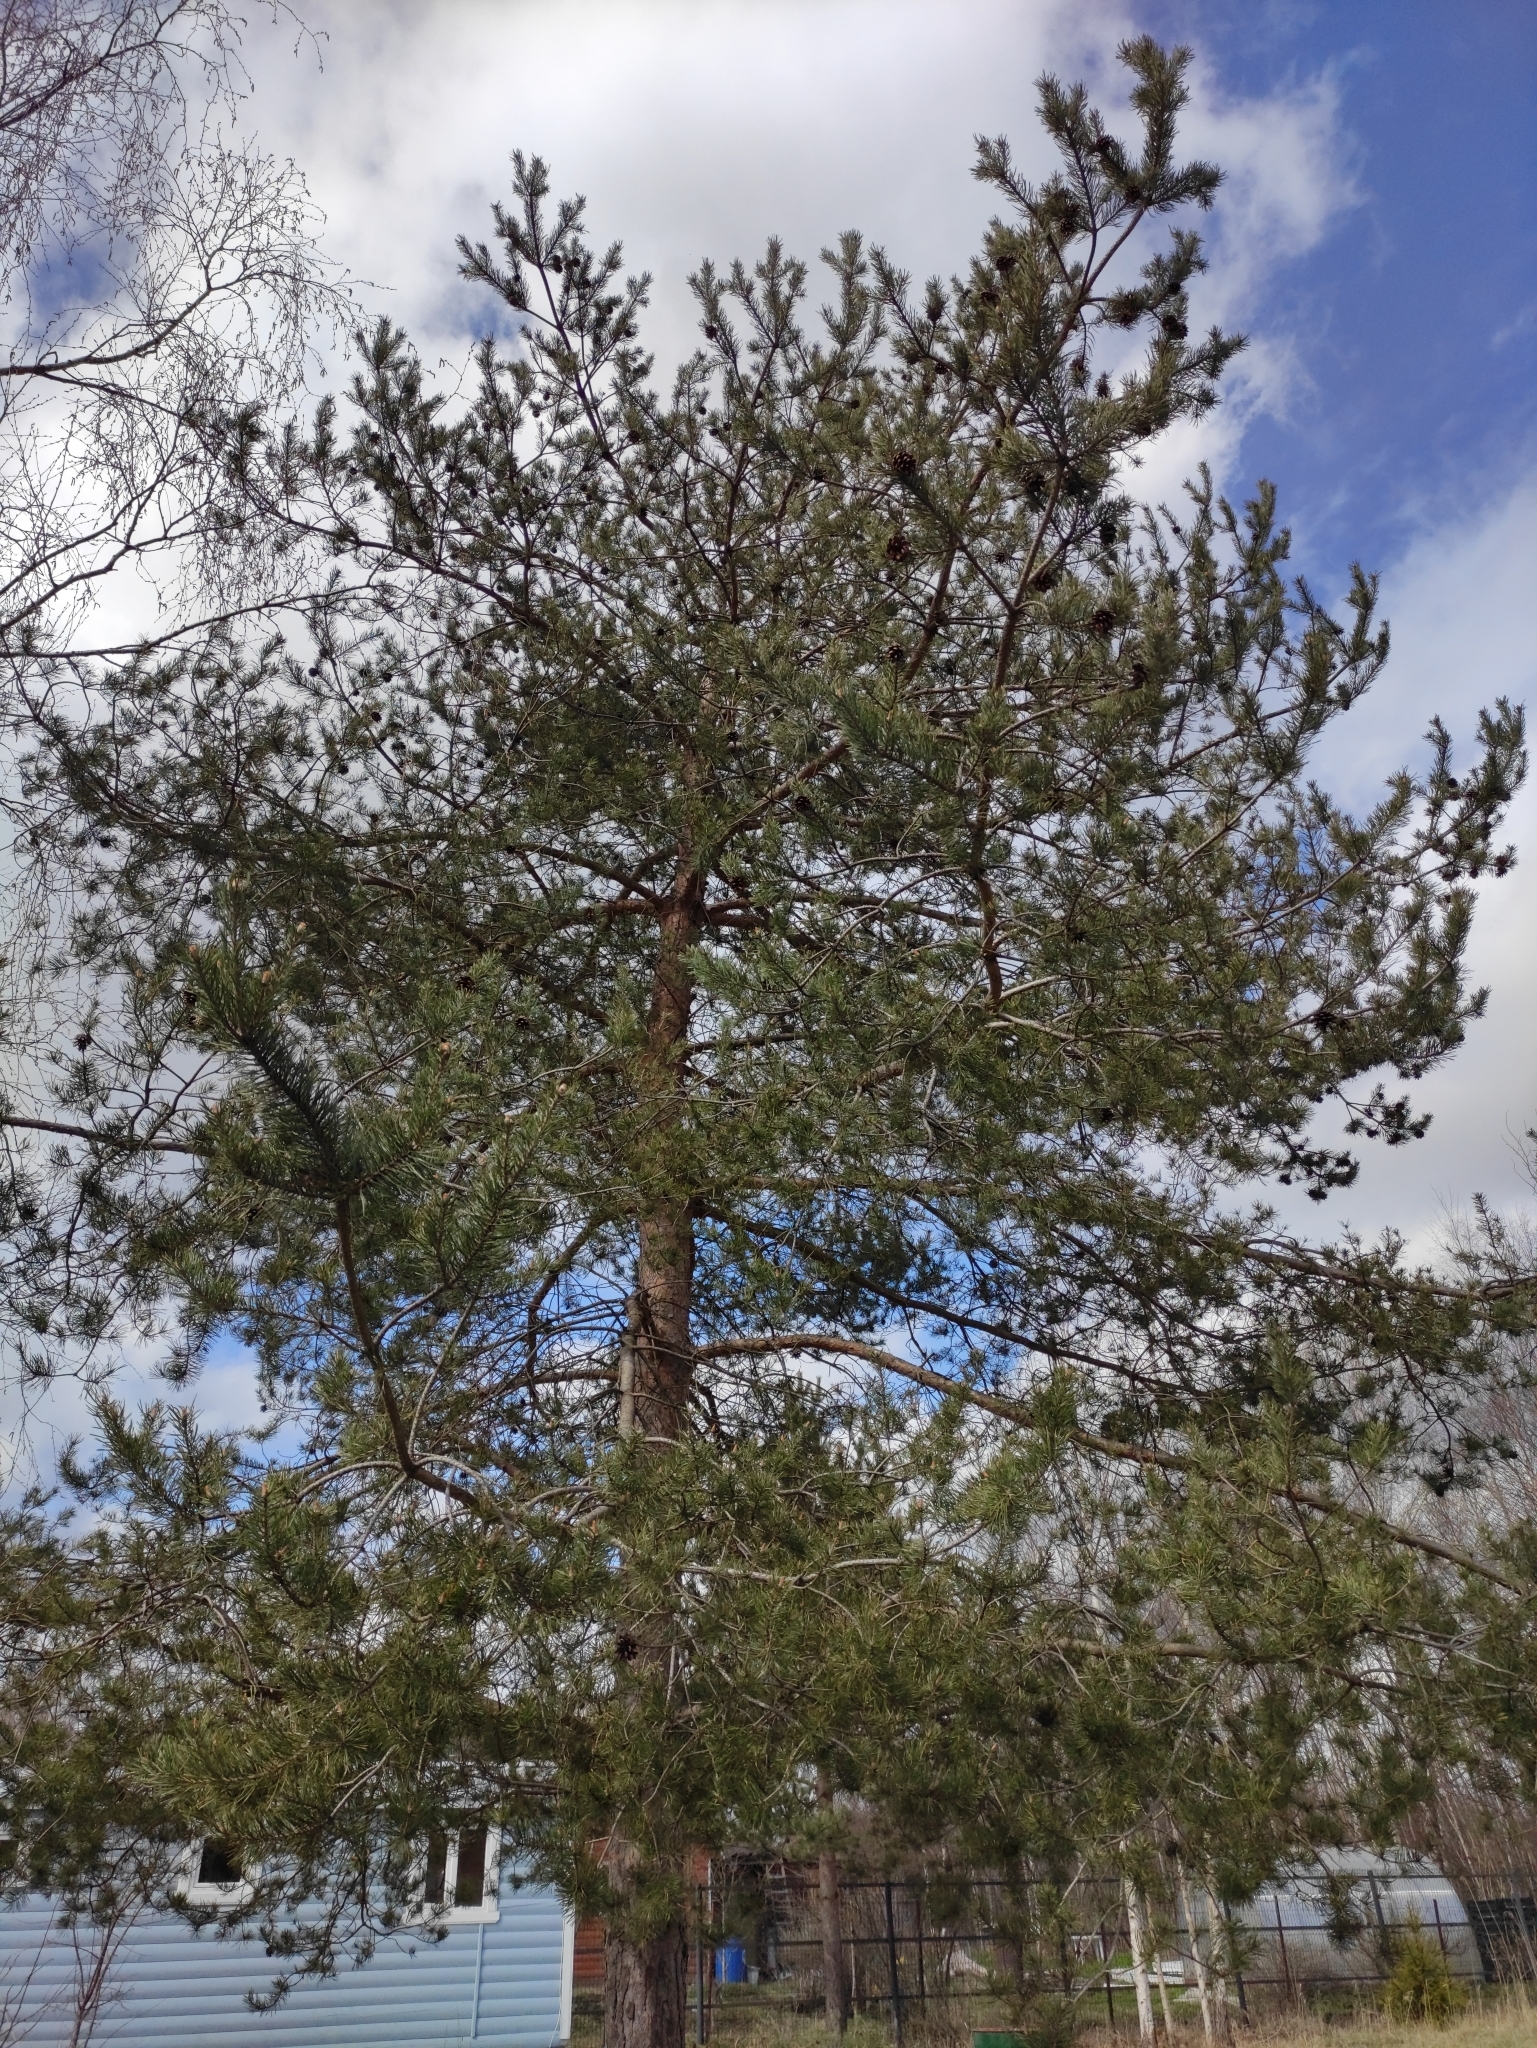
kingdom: Plantae
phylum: Tracheophyta
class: Pinopsida
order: Pinales
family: Pinaceae
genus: Pinus
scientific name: Pinus sylvestris
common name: Scots pine
